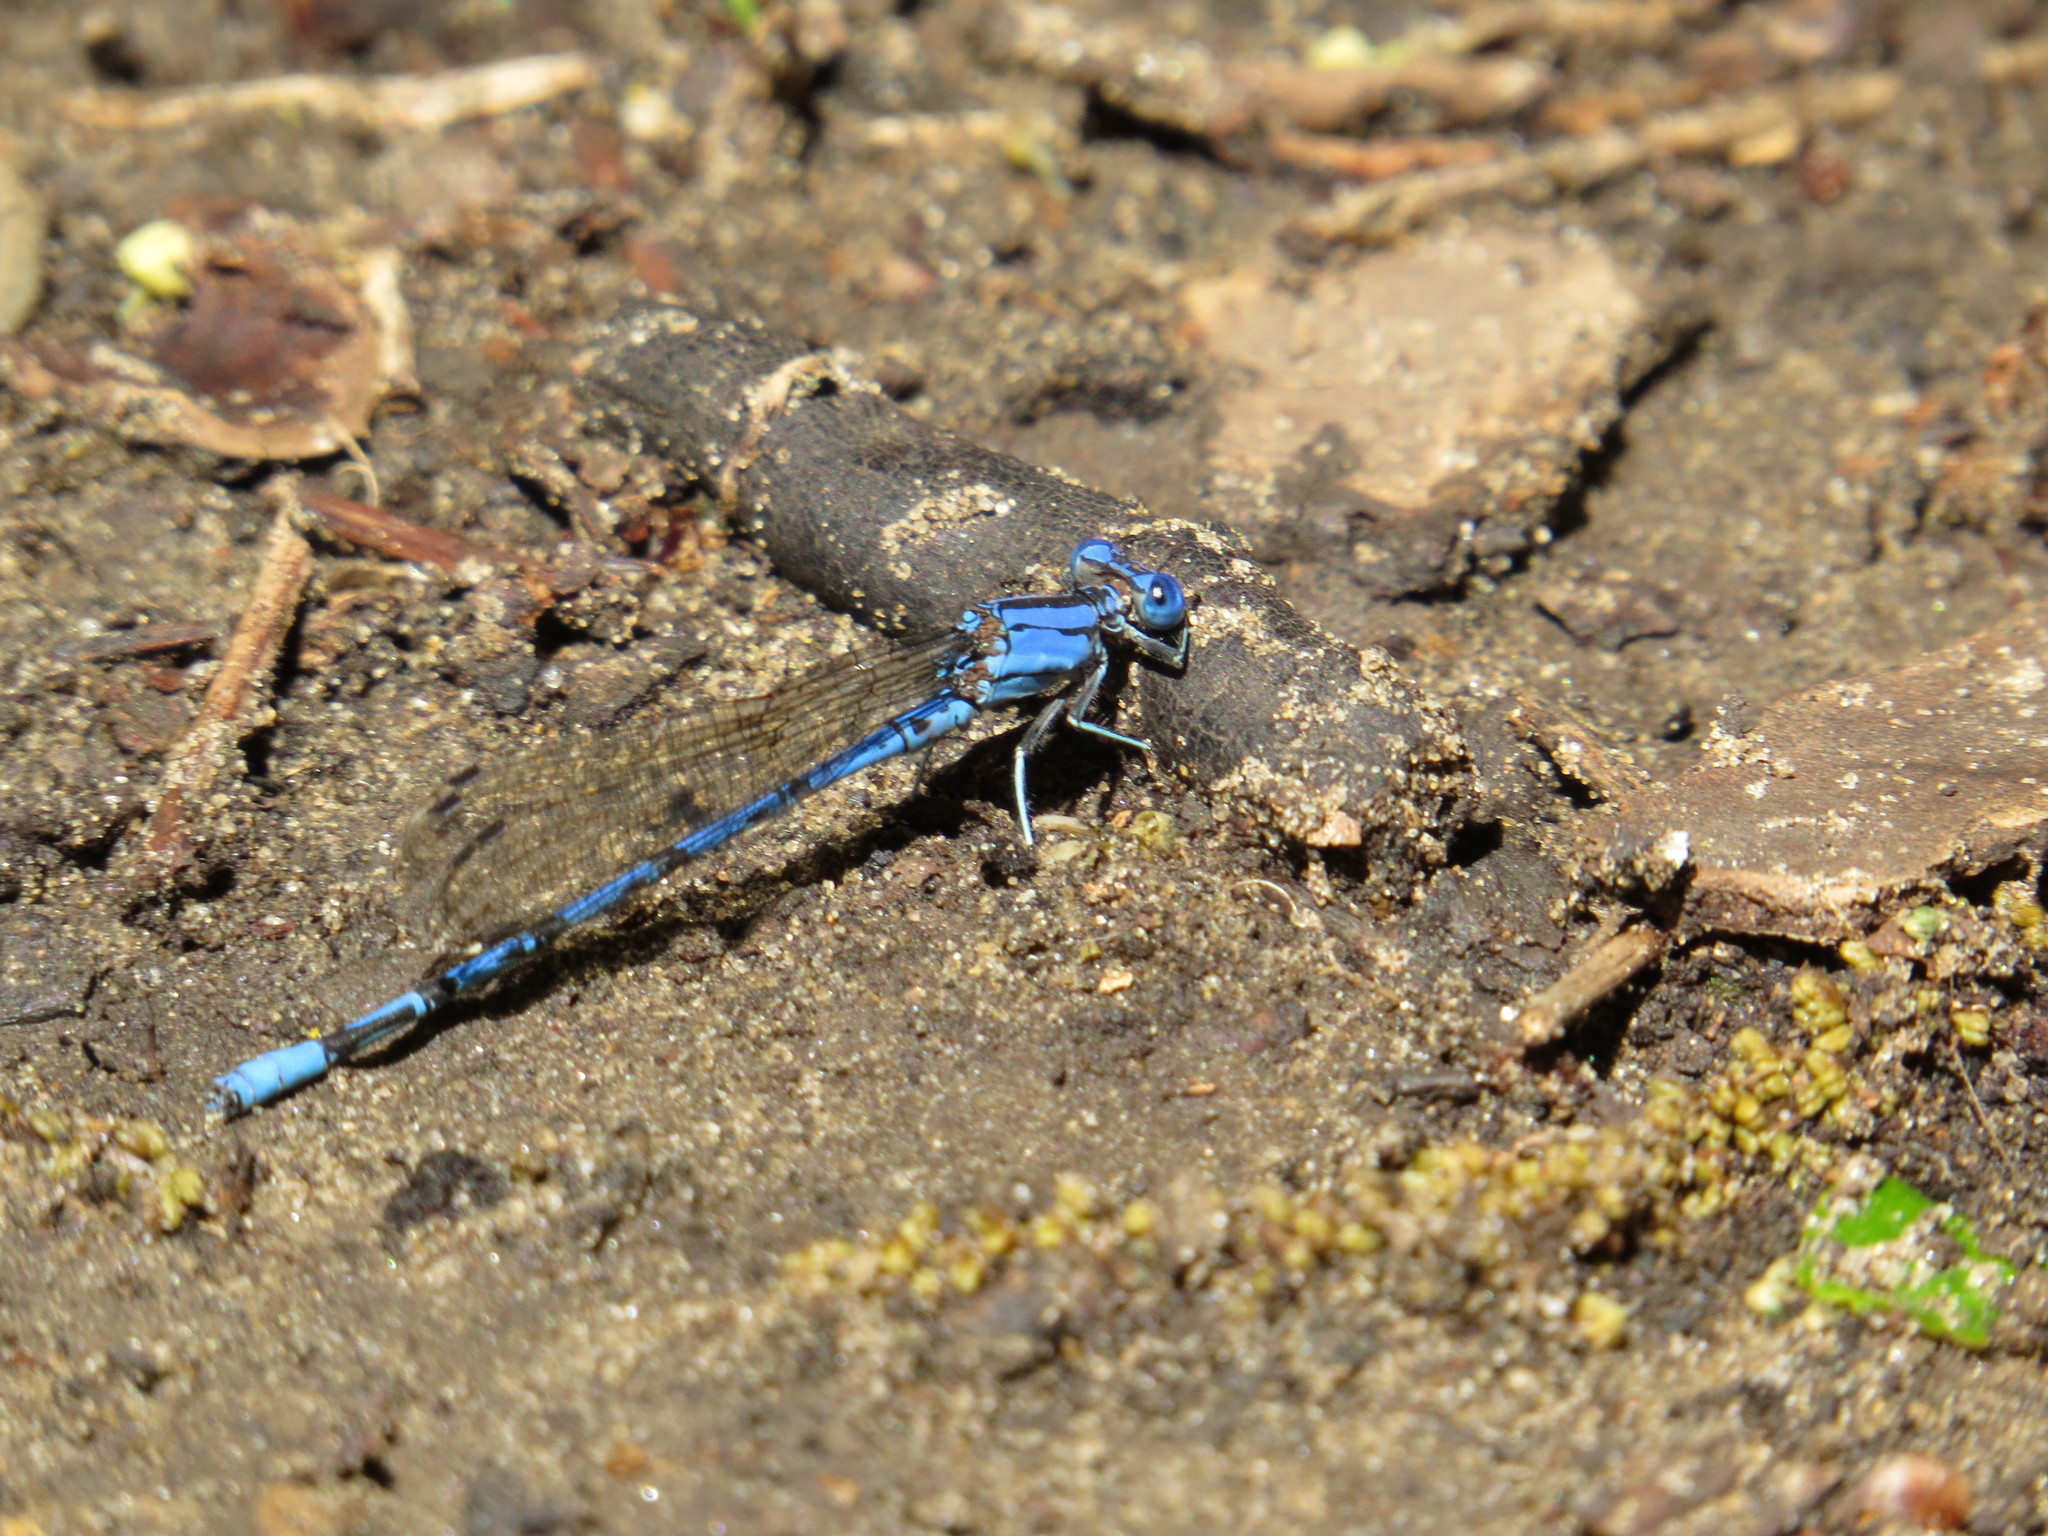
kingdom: Animalia
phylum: Arthropoda
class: Insecta
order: Odonata
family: Coenagrionidae
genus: Argia
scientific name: Argia funebris
